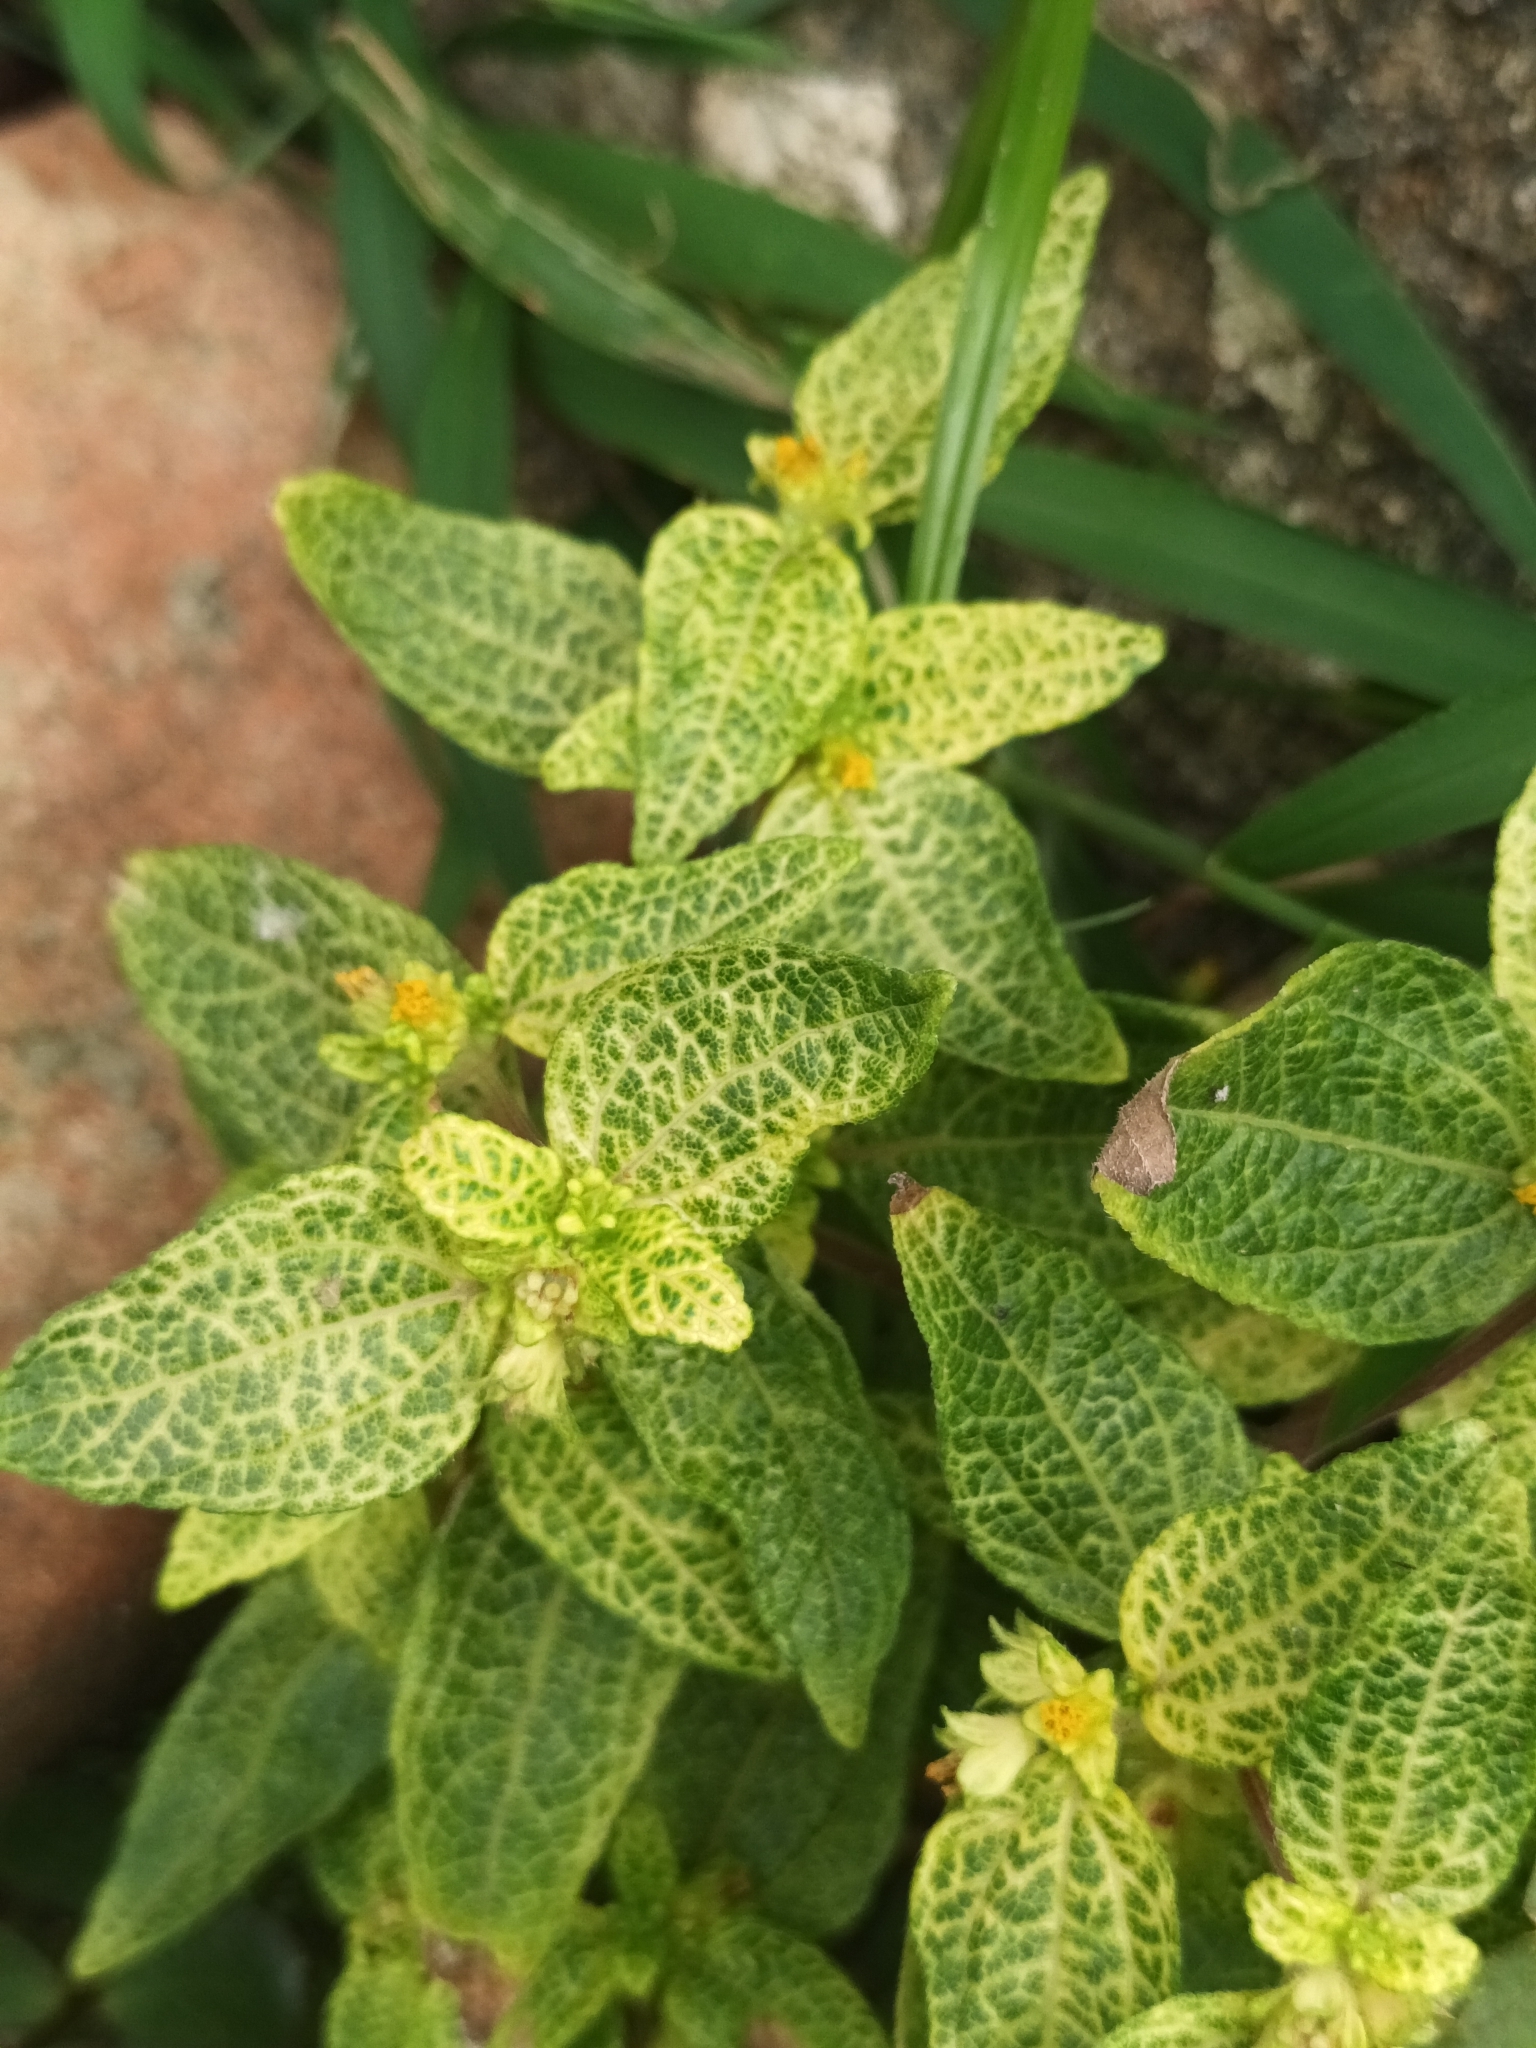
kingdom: Viruses
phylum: Cressdnaviricota
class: Repensiviricetes
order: Geplafuvirales
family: Geminiviridae
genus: Begomovirus
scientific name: Begomovirus Synedrella yellow vein clearing virus
